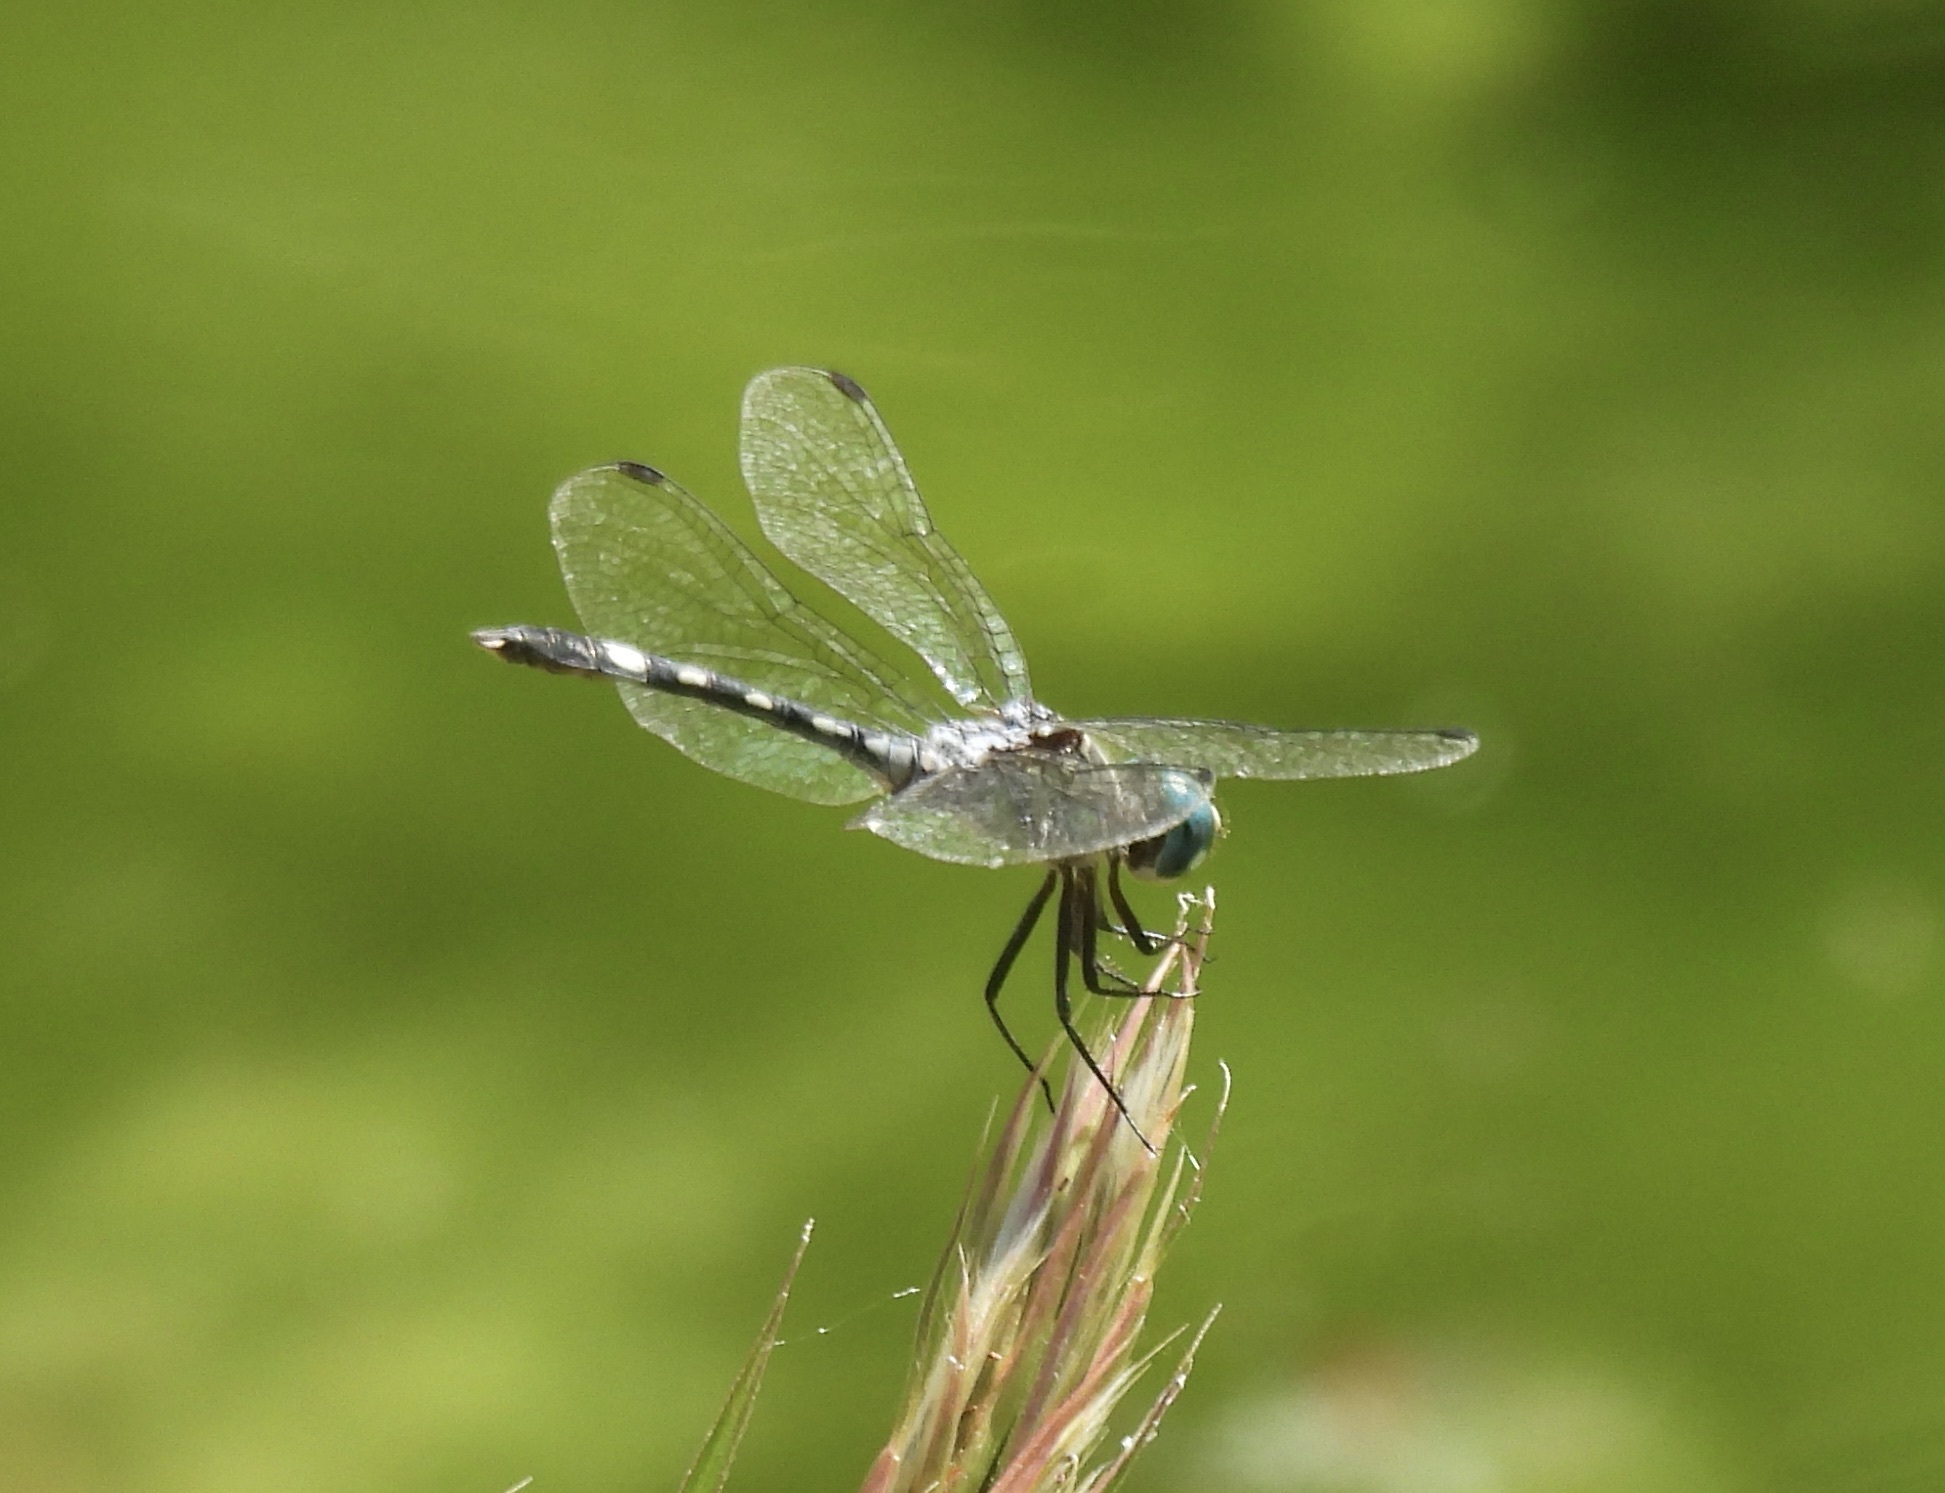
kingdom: Animalia
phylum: Arthropoda
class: Insecta
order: Odonata
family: Libellulidae
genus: Micrathyria
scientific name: Micrathyria hagenii
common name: Thornbush dasher
